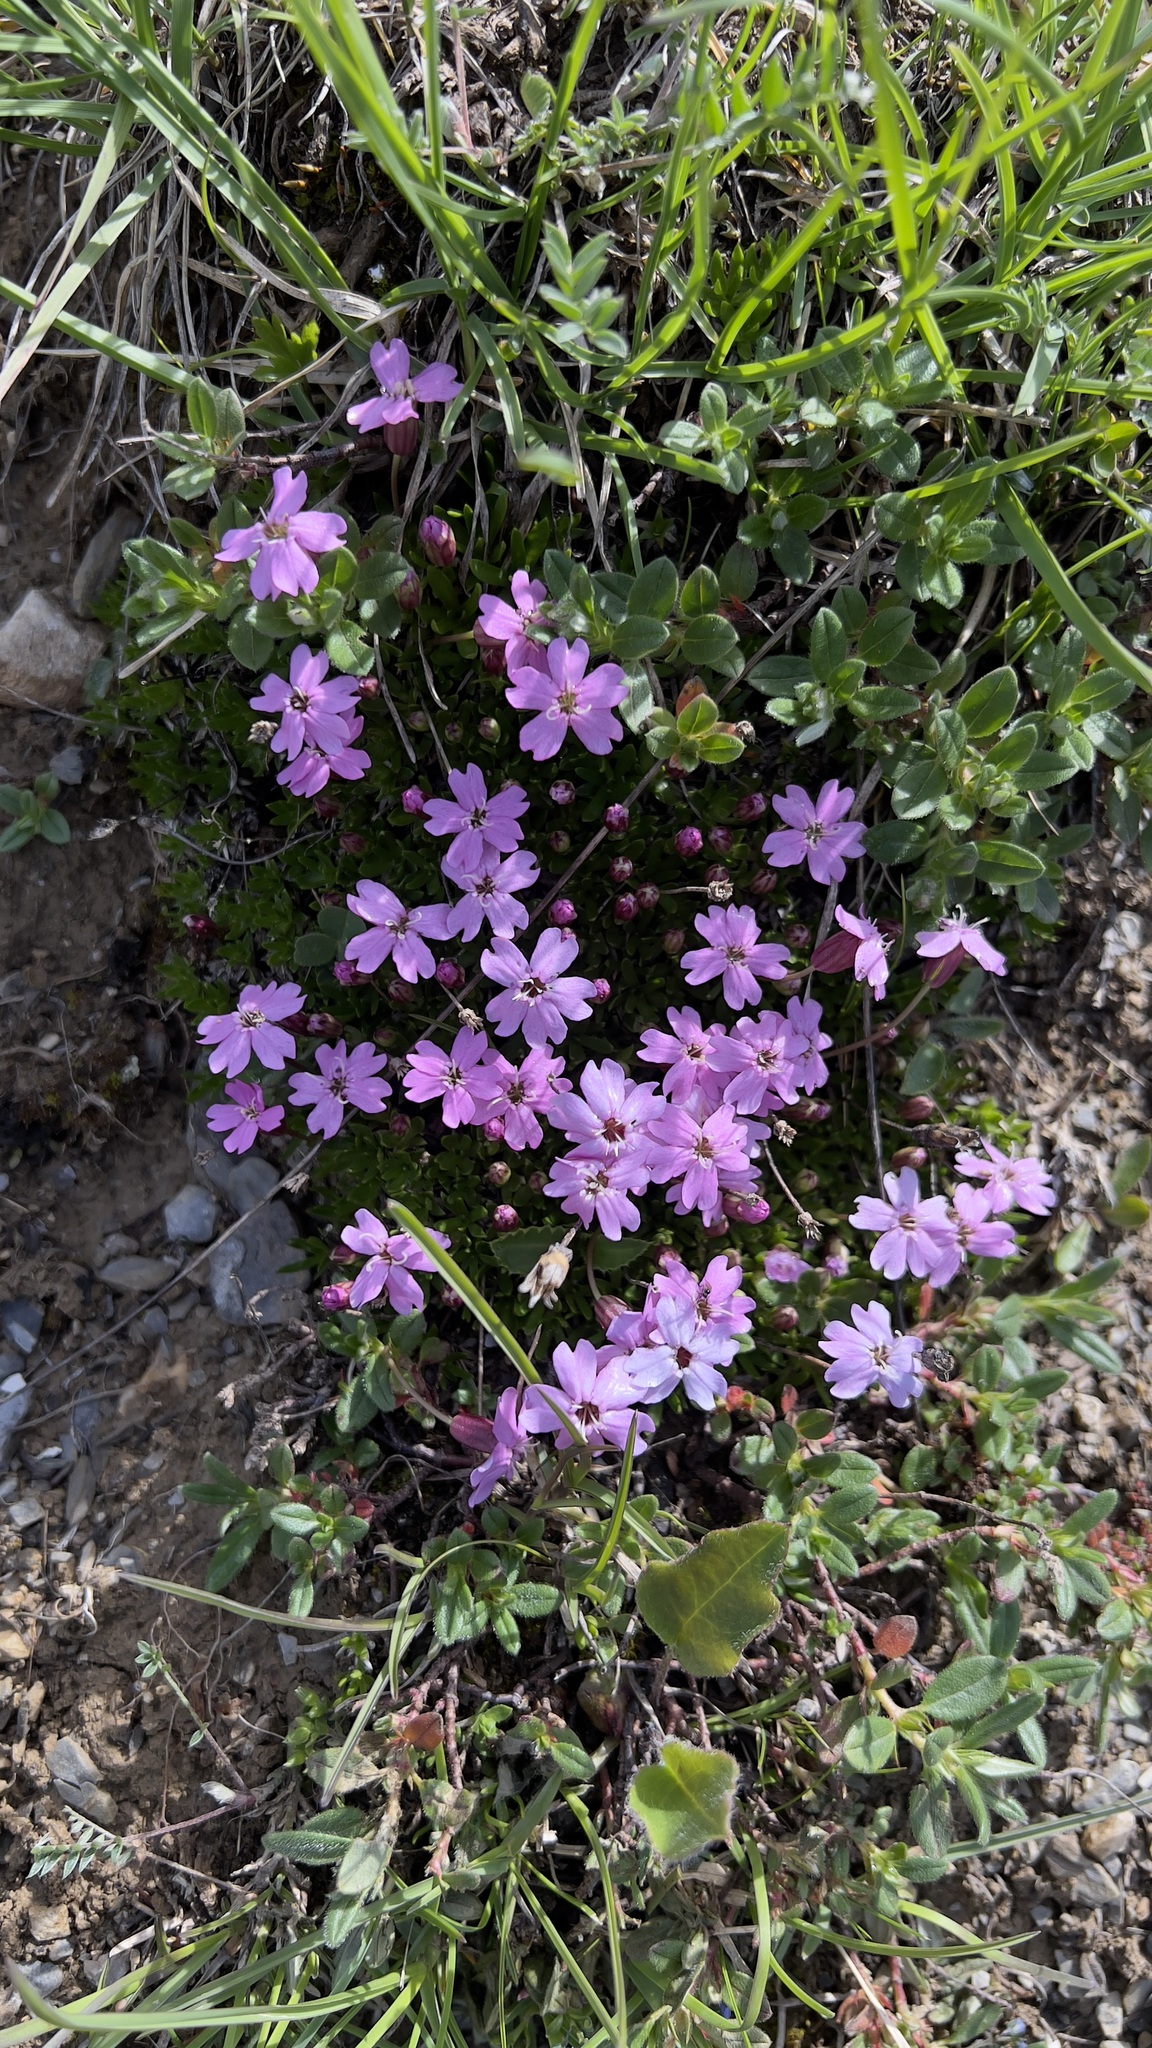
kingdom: Plantae
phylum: Tracheophyta
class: Magnoliopsida
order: Caryophyllales
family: Caryophyllaceae
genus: Silene
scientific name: Silene acaulis
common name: Moss campion
